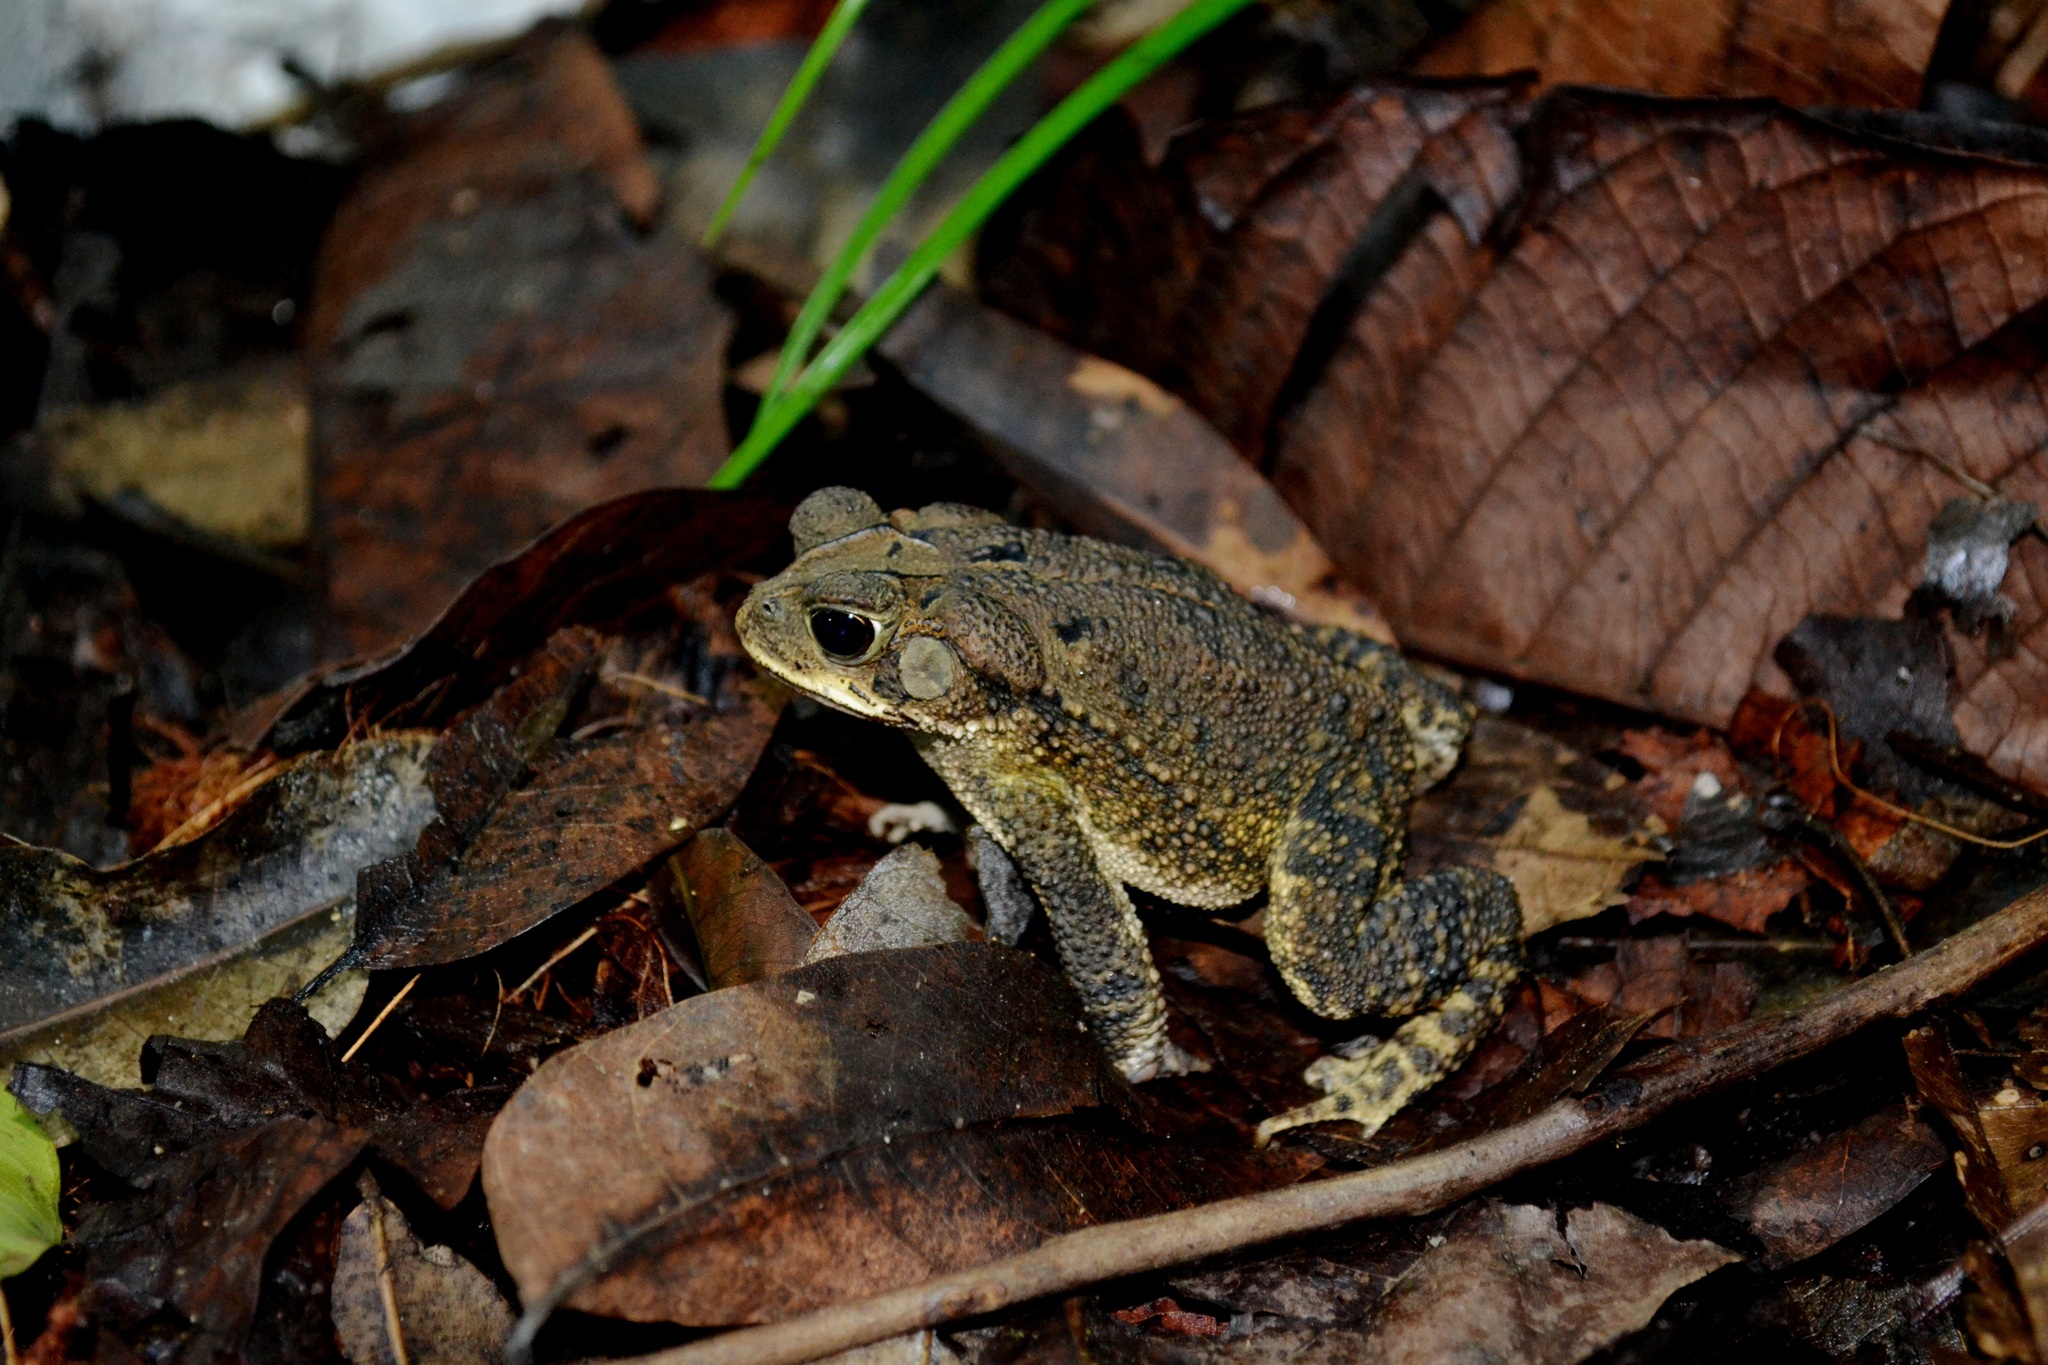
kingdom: Animalia
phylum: Chordata
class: Amphibia
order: Anura
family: Bufonidae
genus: Incilius
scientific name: Incilius valliceps
